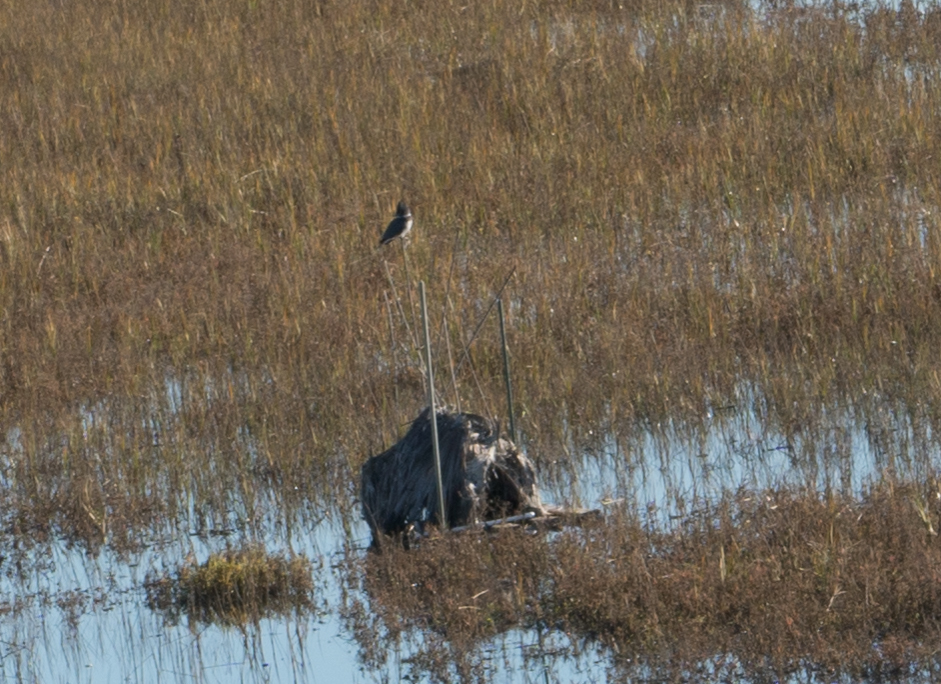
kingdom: Animalia
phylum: Chordata
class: Aves
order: Coraciiformes
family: Alcedinidae
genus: Megaceryle
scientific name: Megaceryle alcyon
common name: Belted kingfisher
